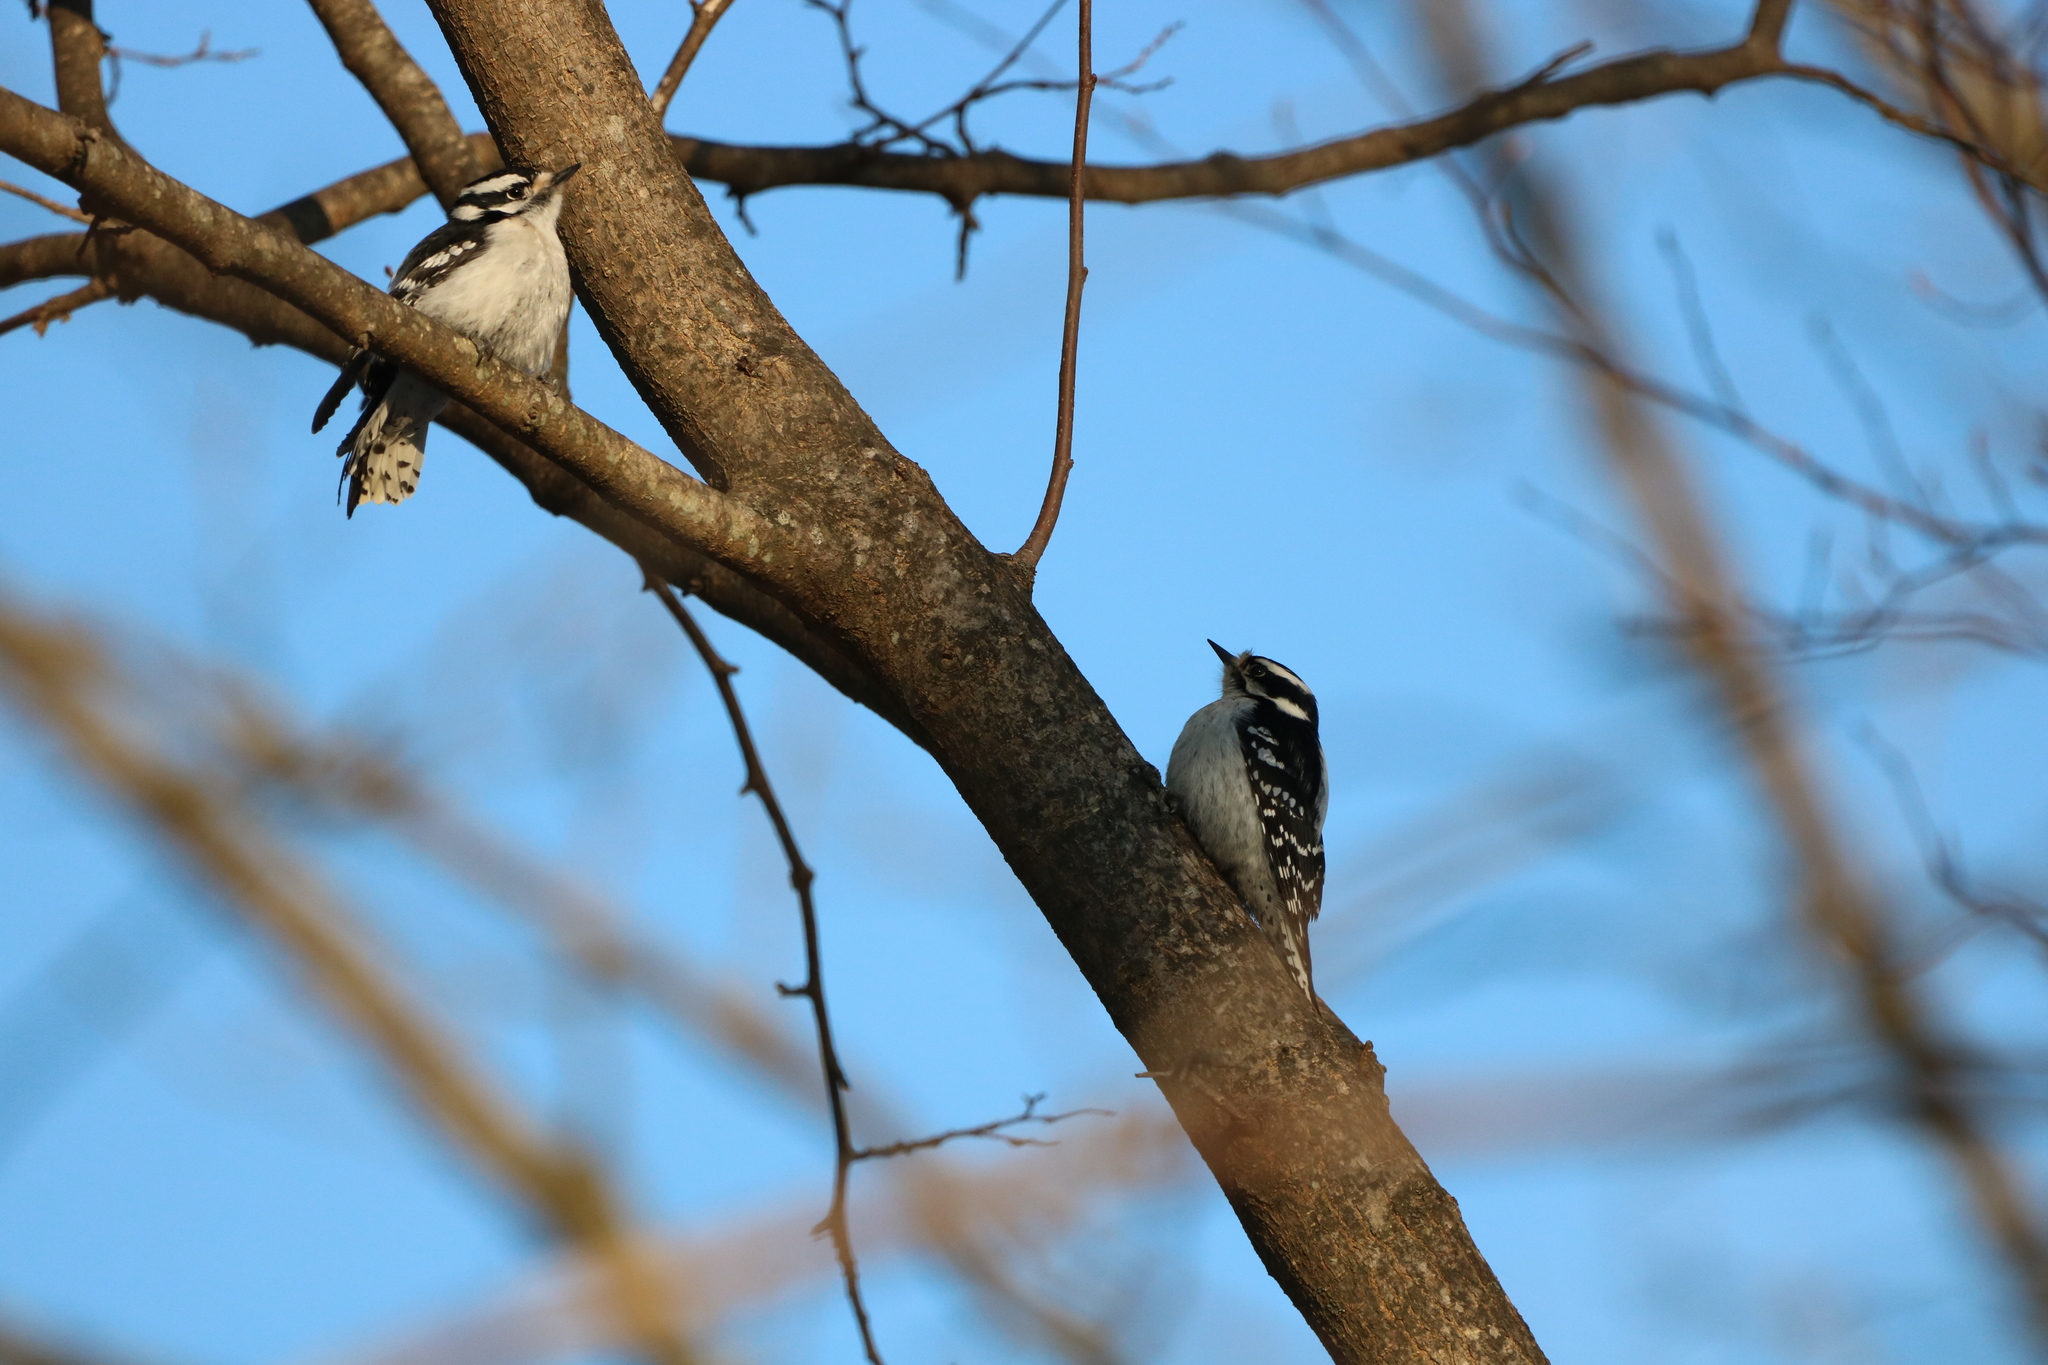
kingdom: Animalia
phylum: Chordata
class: Aves
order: Piciformes
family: Picidae
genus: Dryobates
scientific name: Dryobates pubescens
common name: Downy woodpecker
